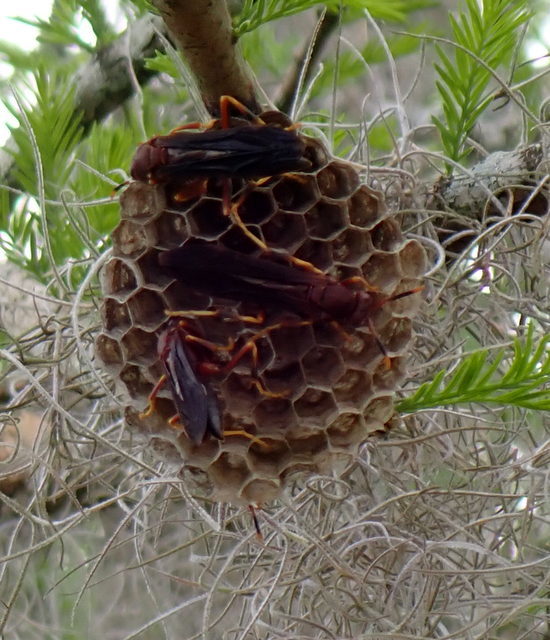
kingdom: Animalia
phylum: Arthropoda
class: Insecta
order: Hymenoptera
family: Eumenidae
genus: Polistes
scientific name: Polistes annularis
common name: Ringed paper wasp
